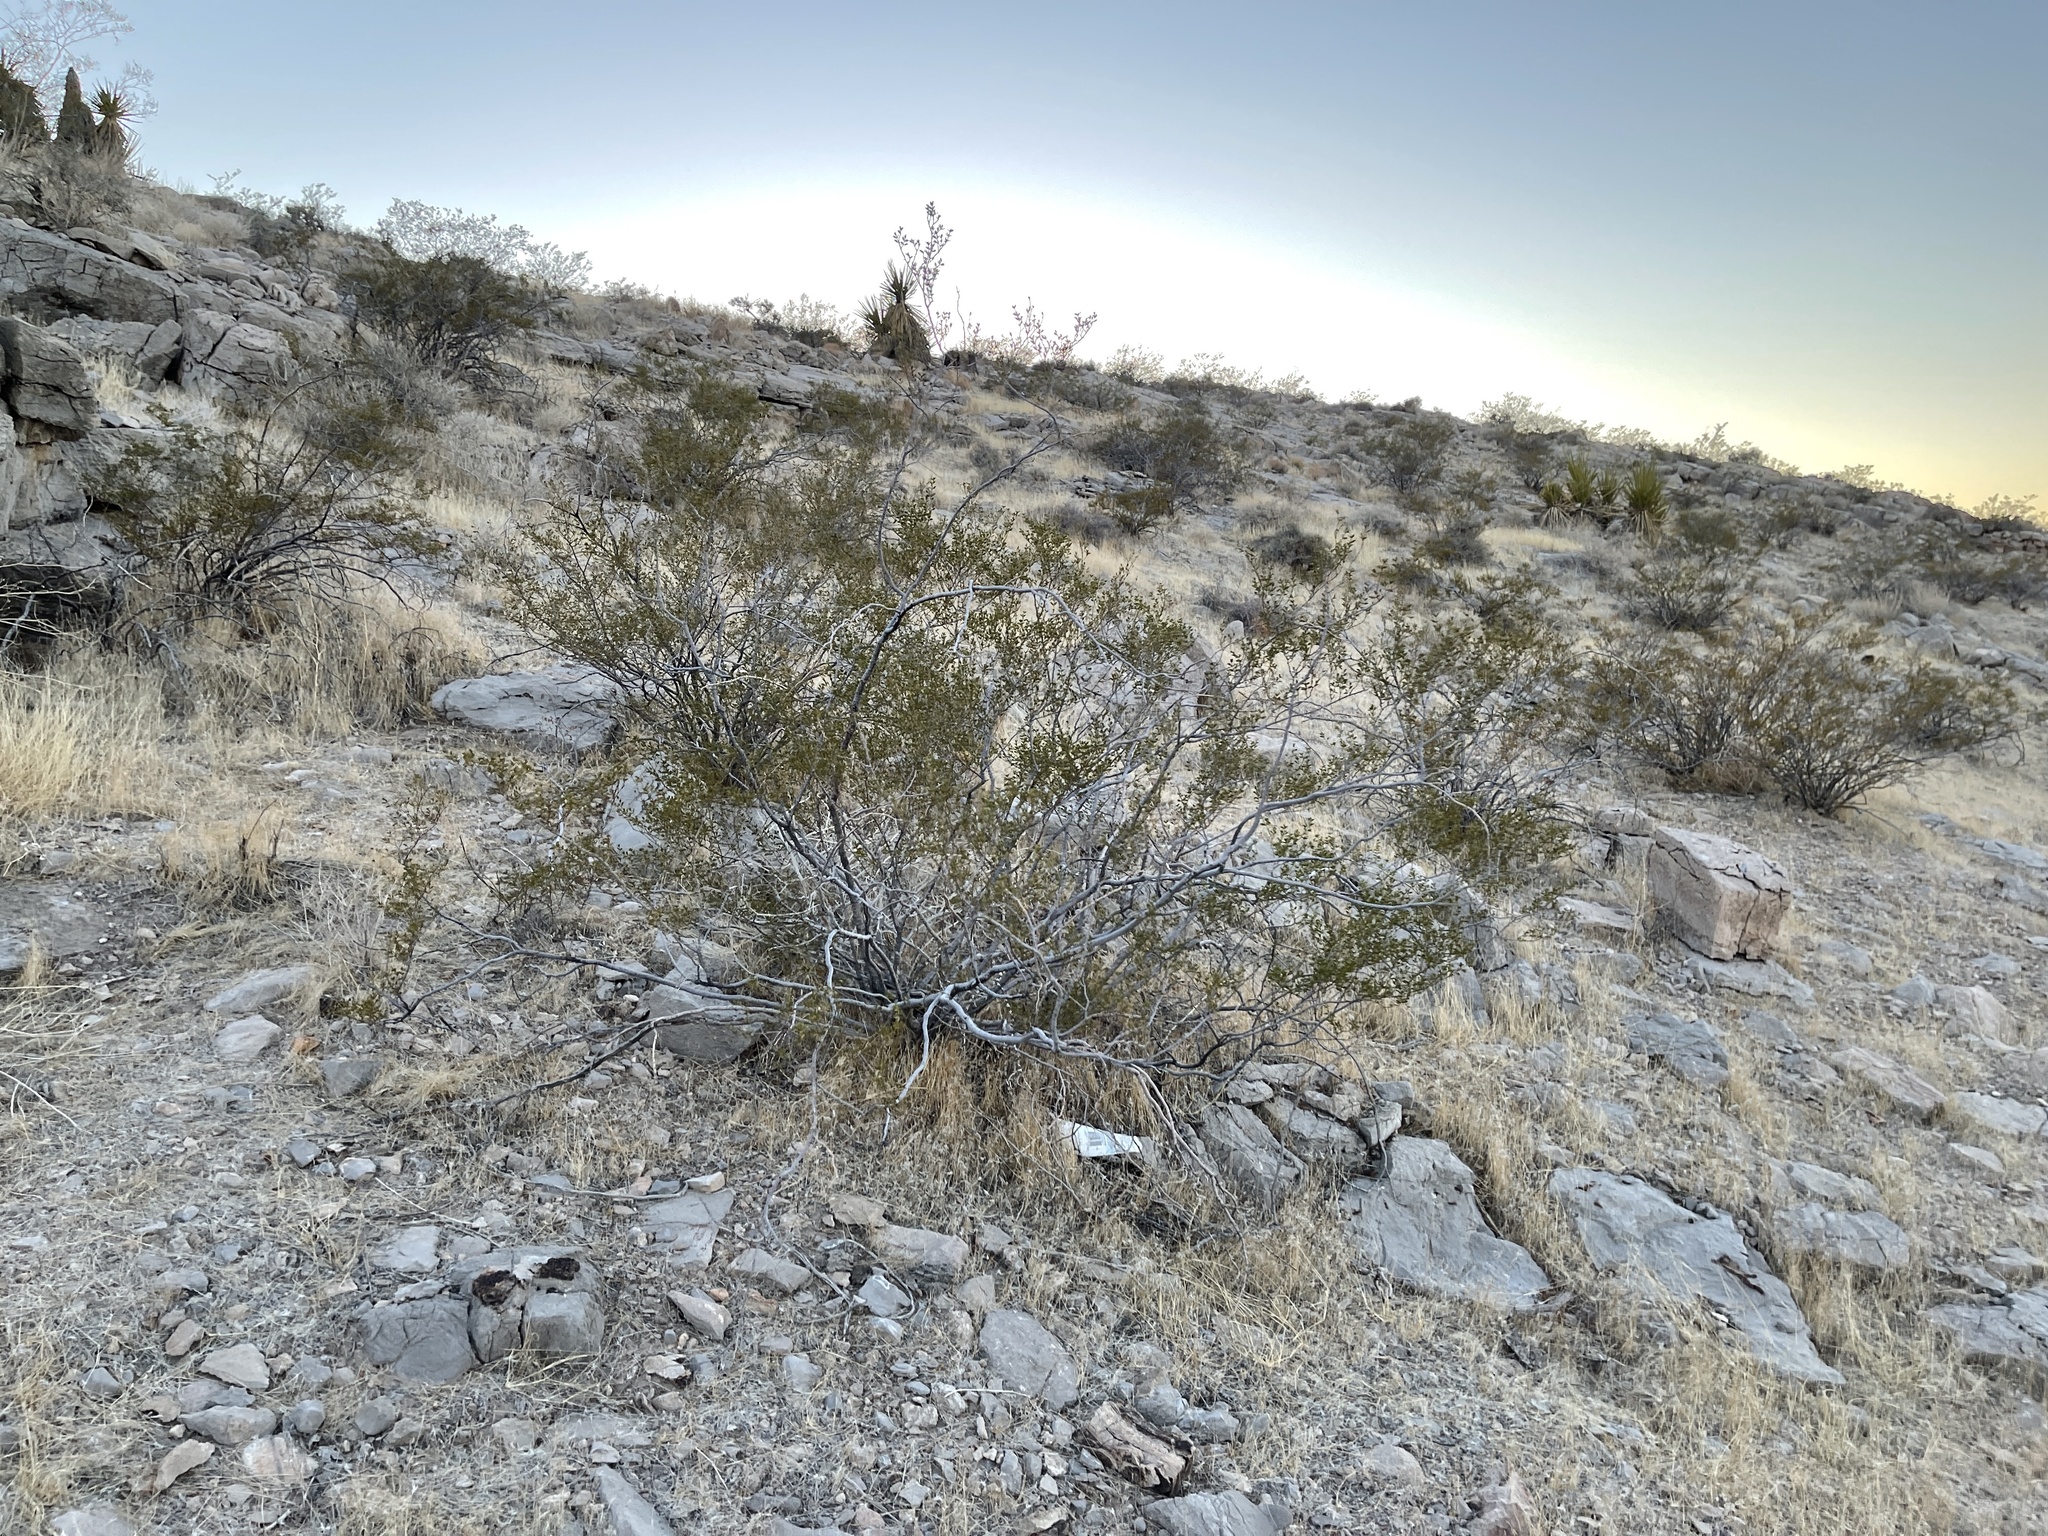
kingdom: Plantae
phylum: Tracheophyta
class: Magnoliopsida
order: Zygophyllales
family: Zygophyllaceae
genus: Larrea
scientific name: Larrea tridentata
